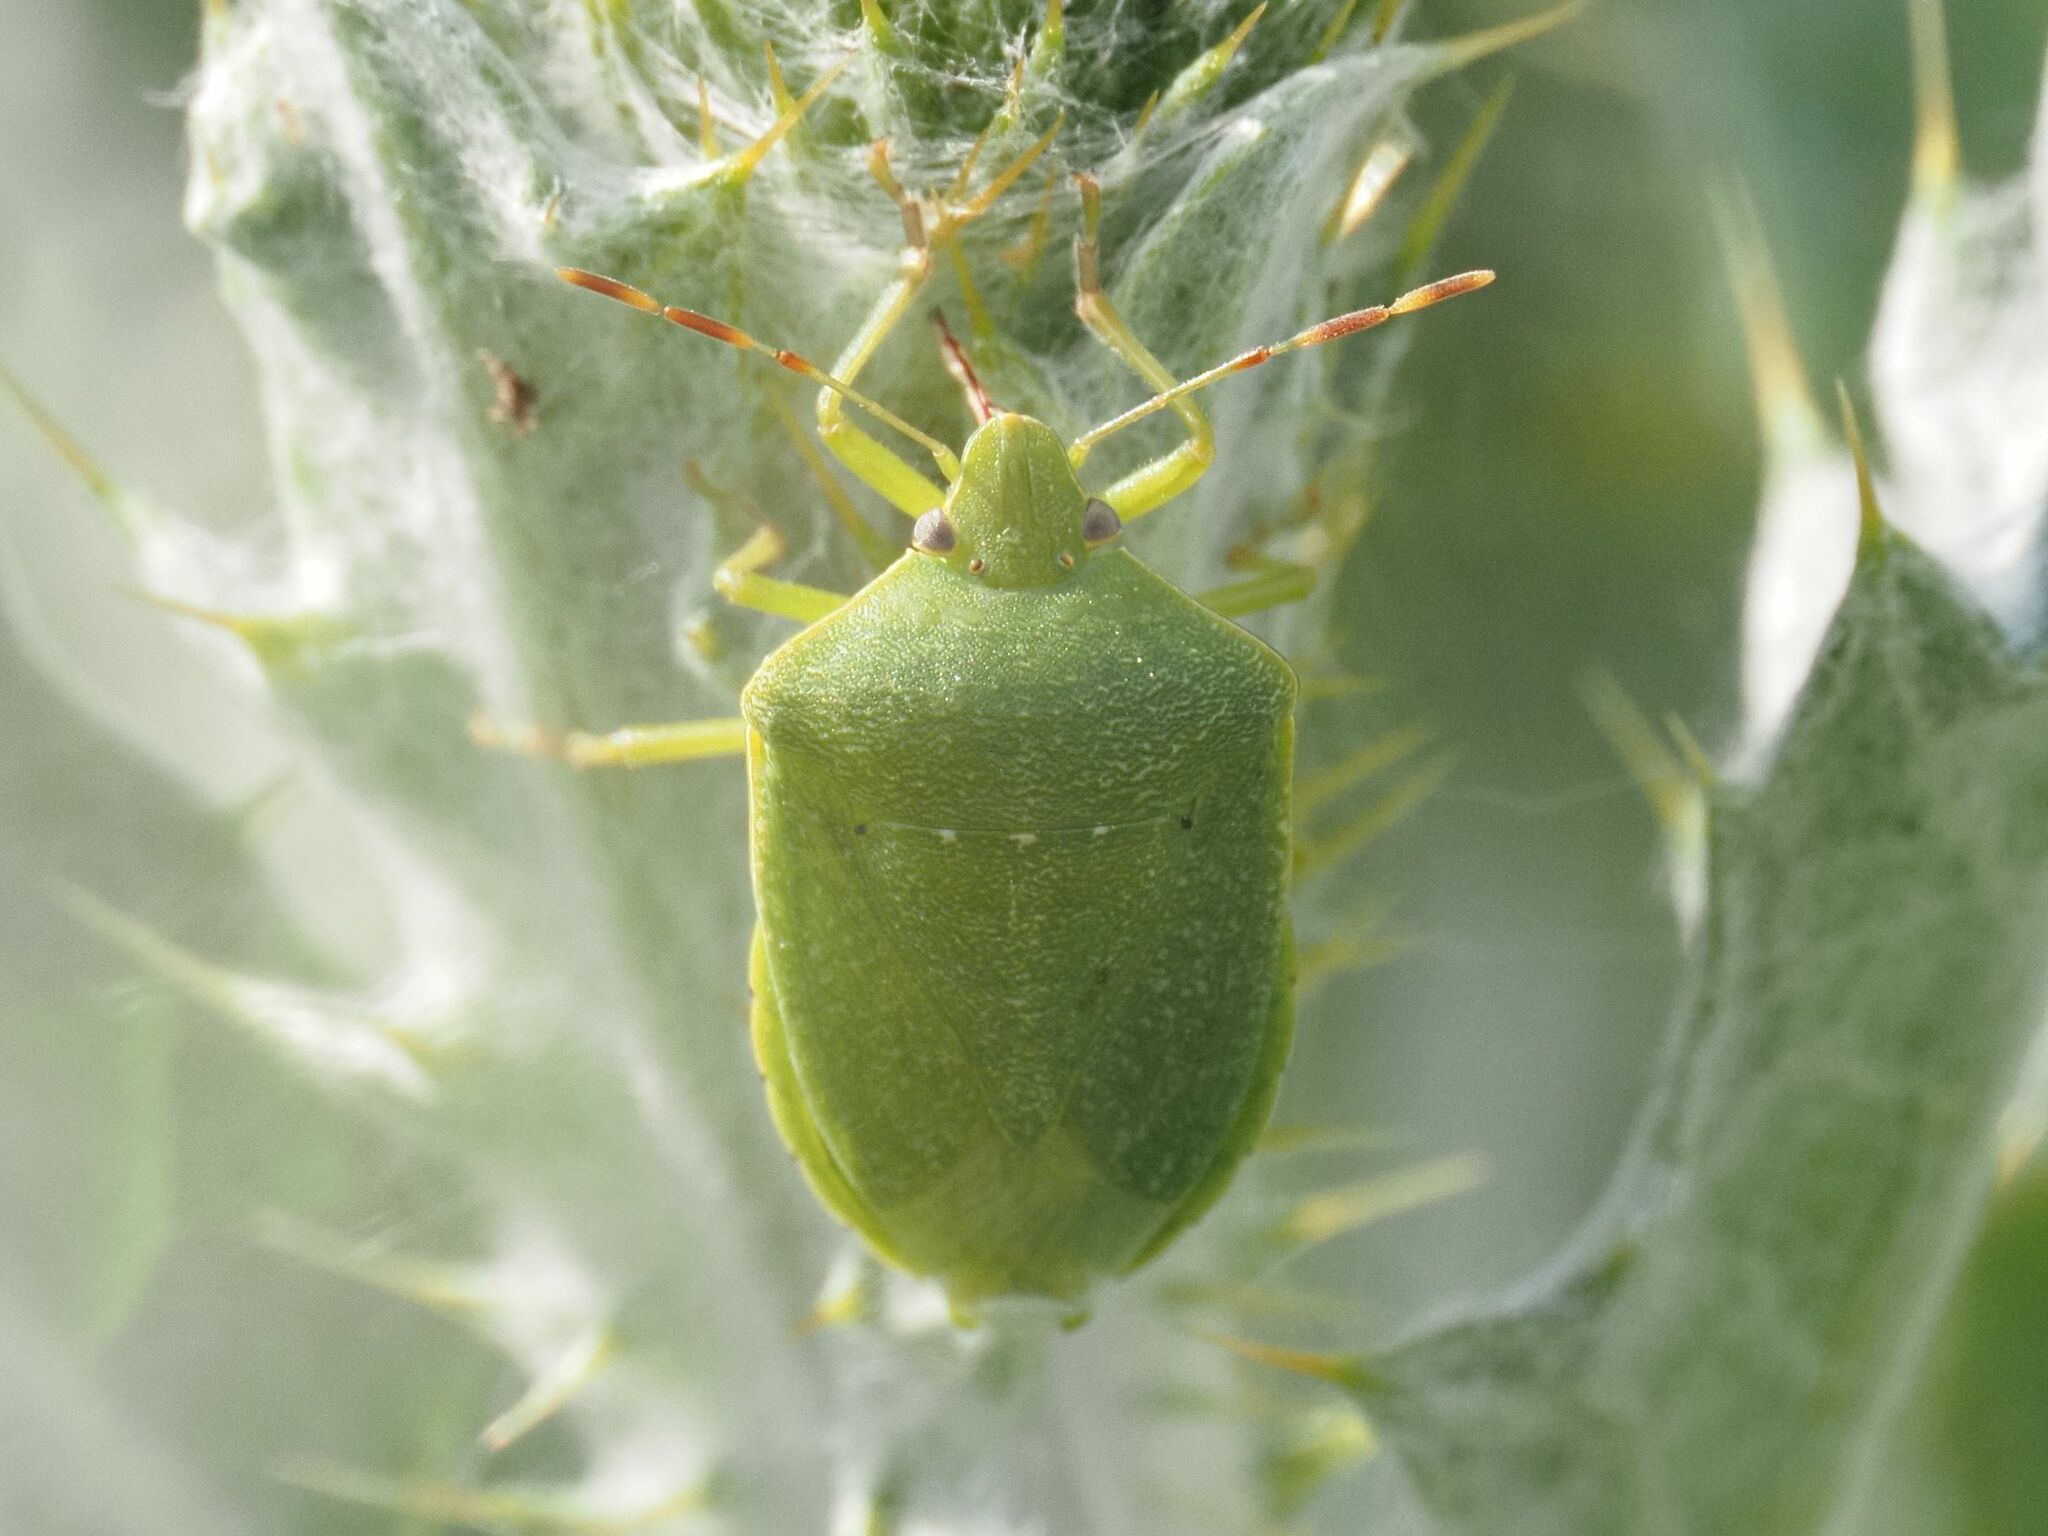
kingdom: Animalia
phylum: Arthropoda
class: Insecta
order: Hemiptera
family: Pentatomidae
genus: Nezara
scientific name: Nezara viridula
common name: Southern green stink bug
